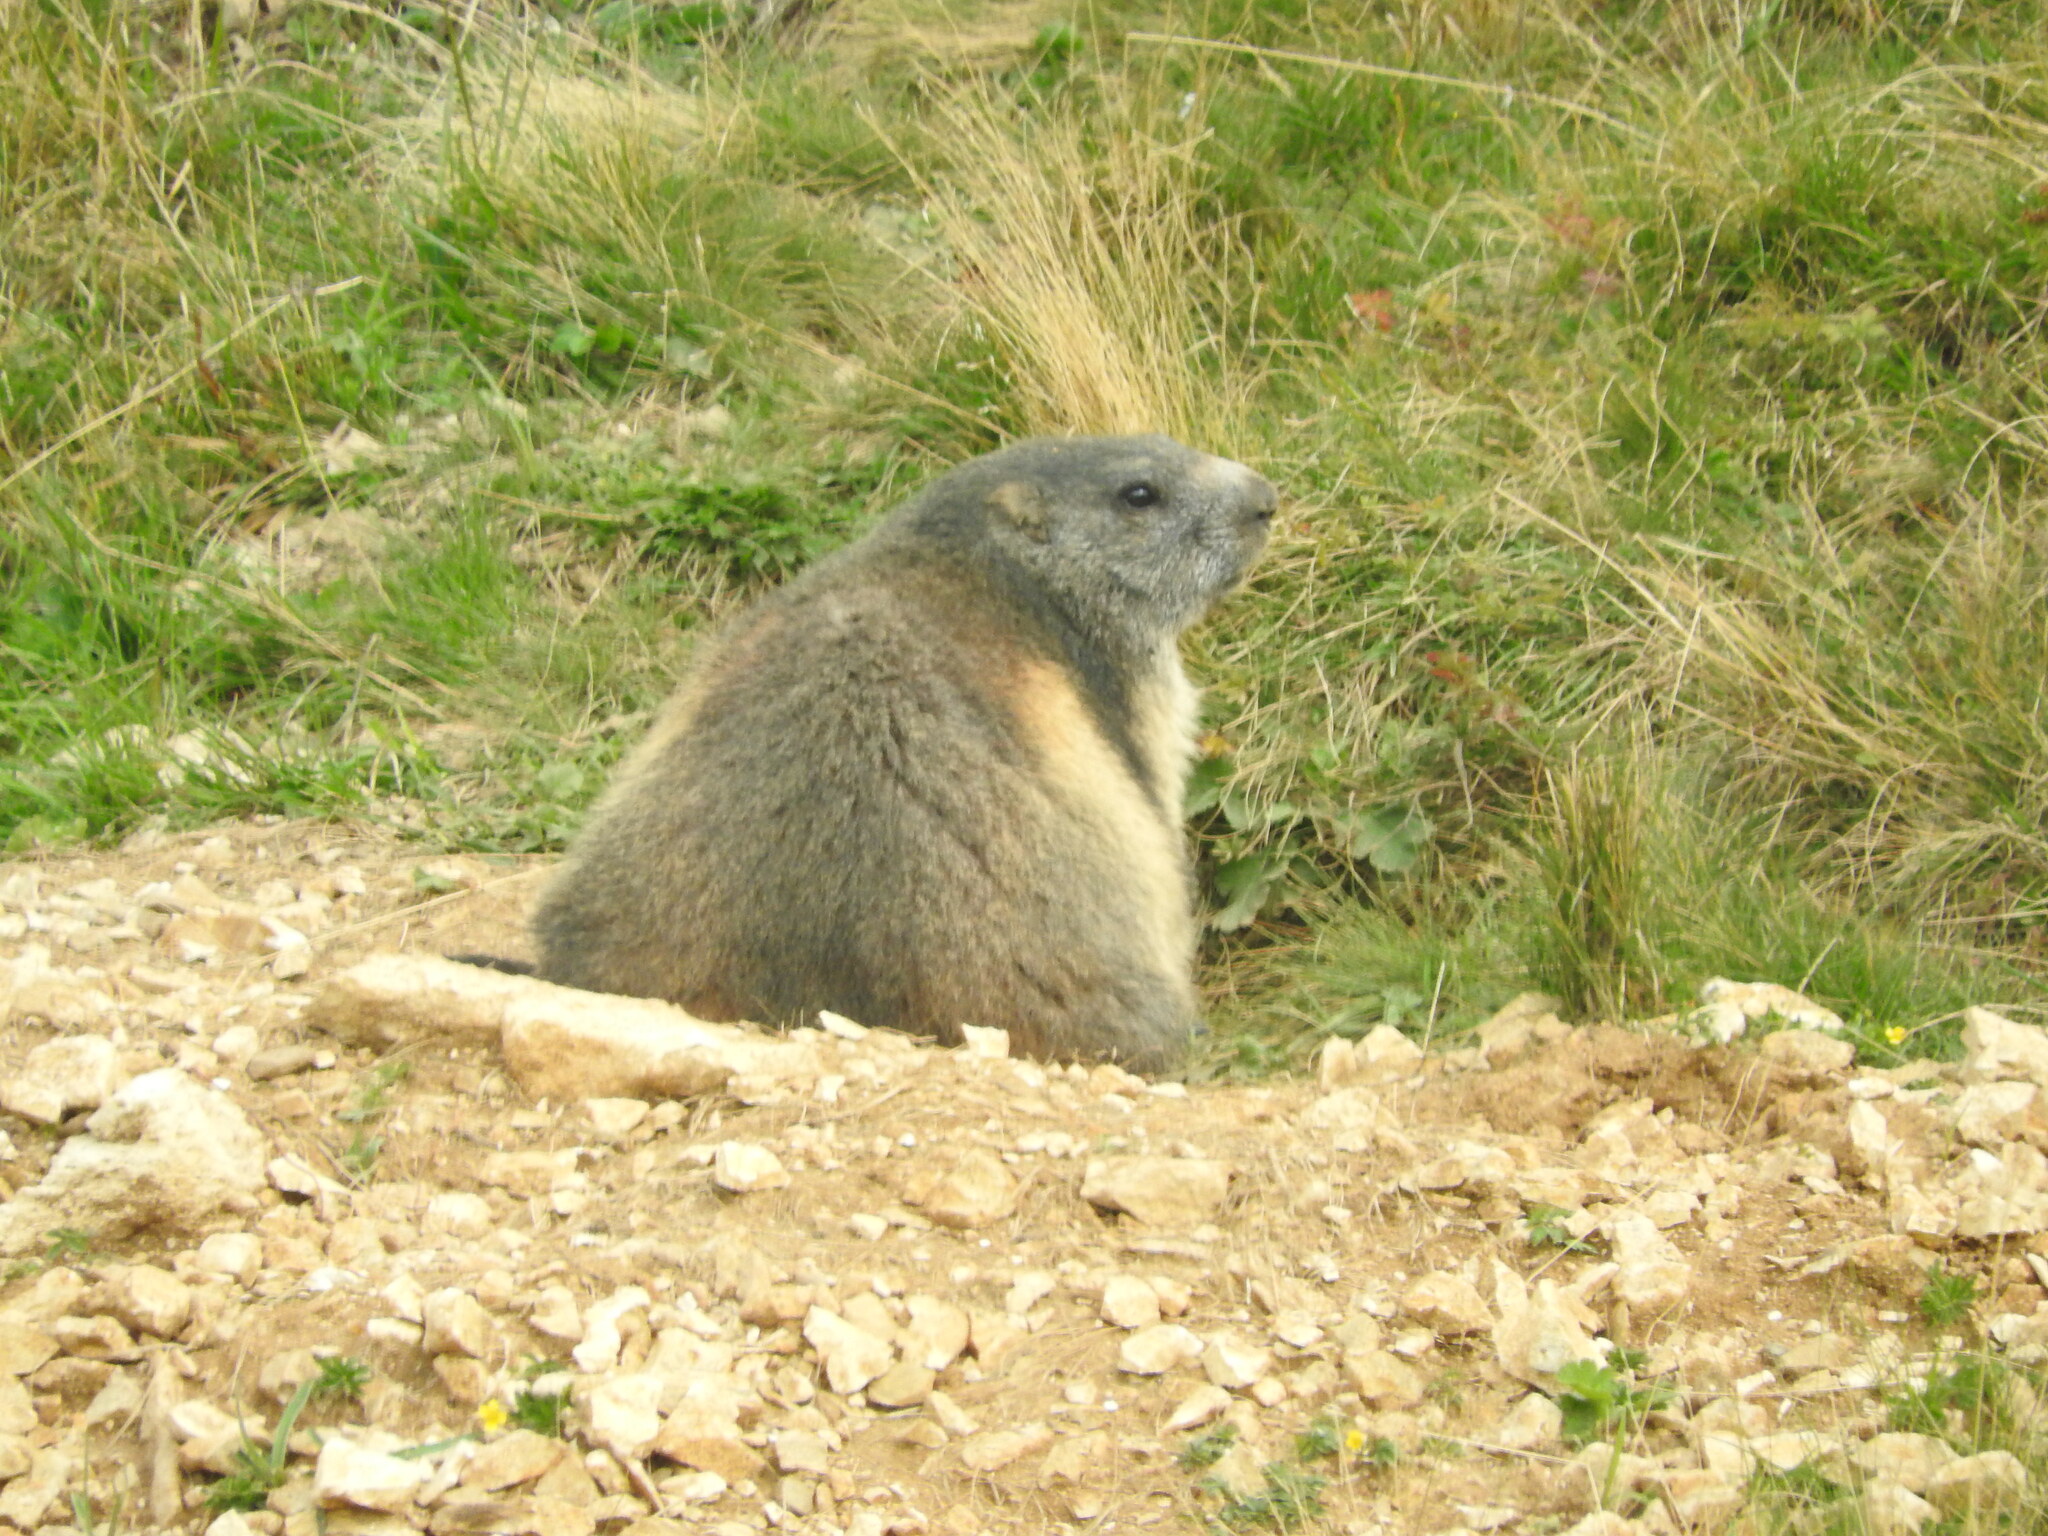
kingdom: Animalia
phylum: Chordata
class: Mammalia
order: Rodentia
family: Sciuridae
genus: Marmota
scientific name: Marmota marmota
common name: Alpine marmot
